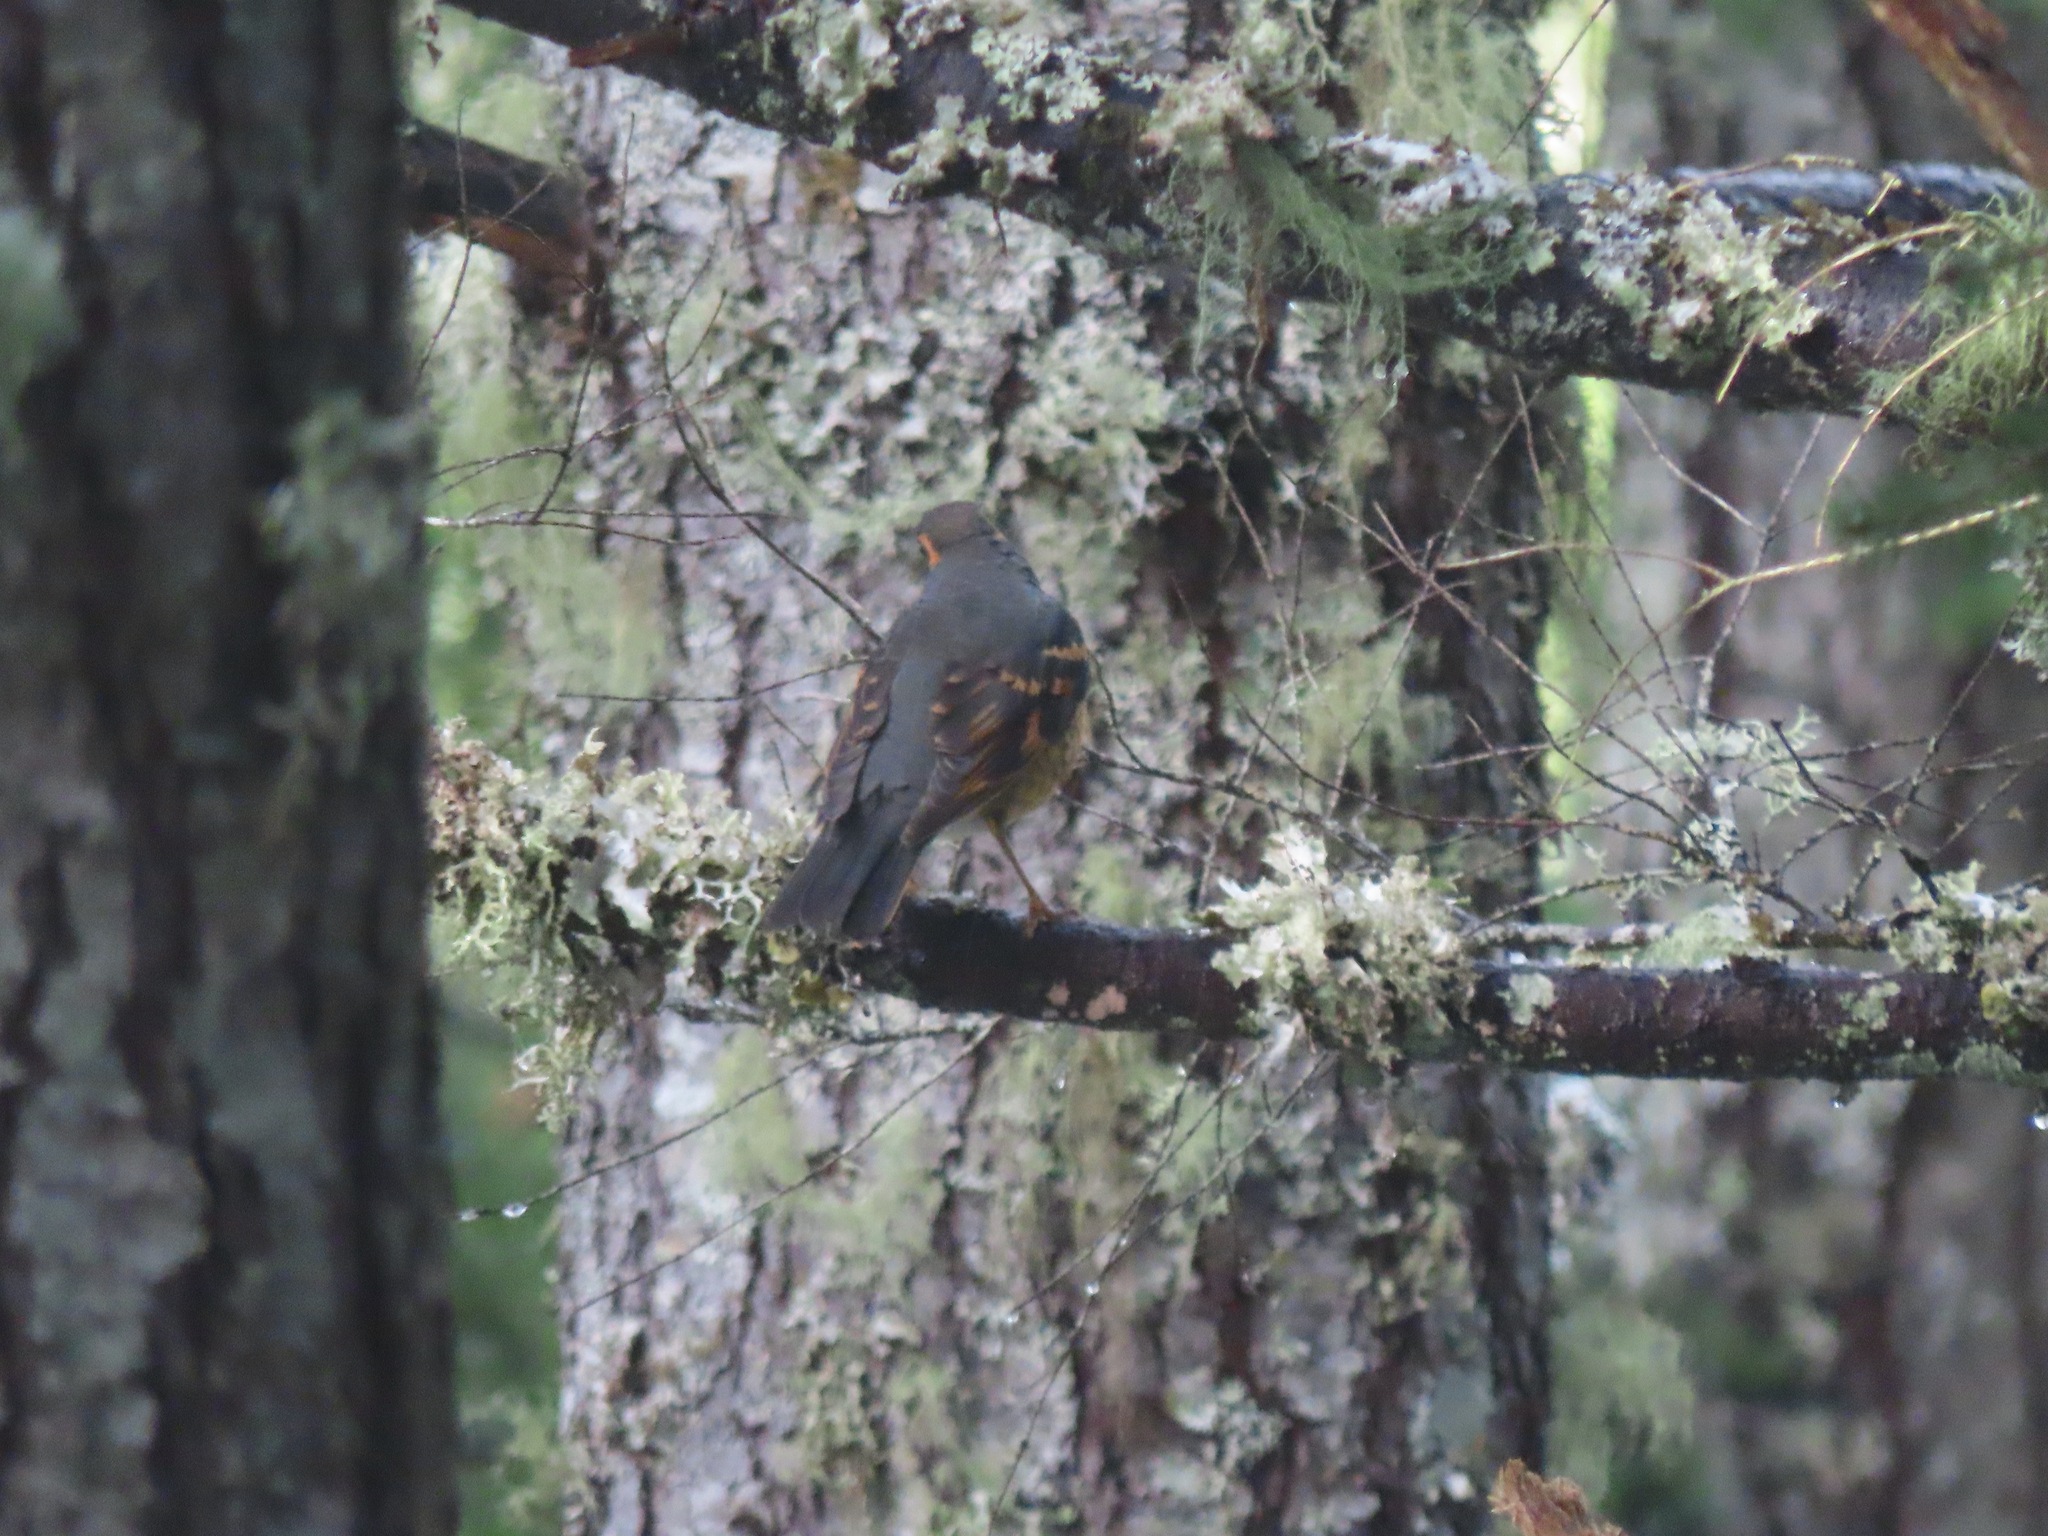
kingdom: Animalia
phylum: Chordata
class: Aves
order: Passeriformes
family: Turdidae
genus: Ixoreus
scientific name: Ixoreus naevius
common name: Varied thrush
